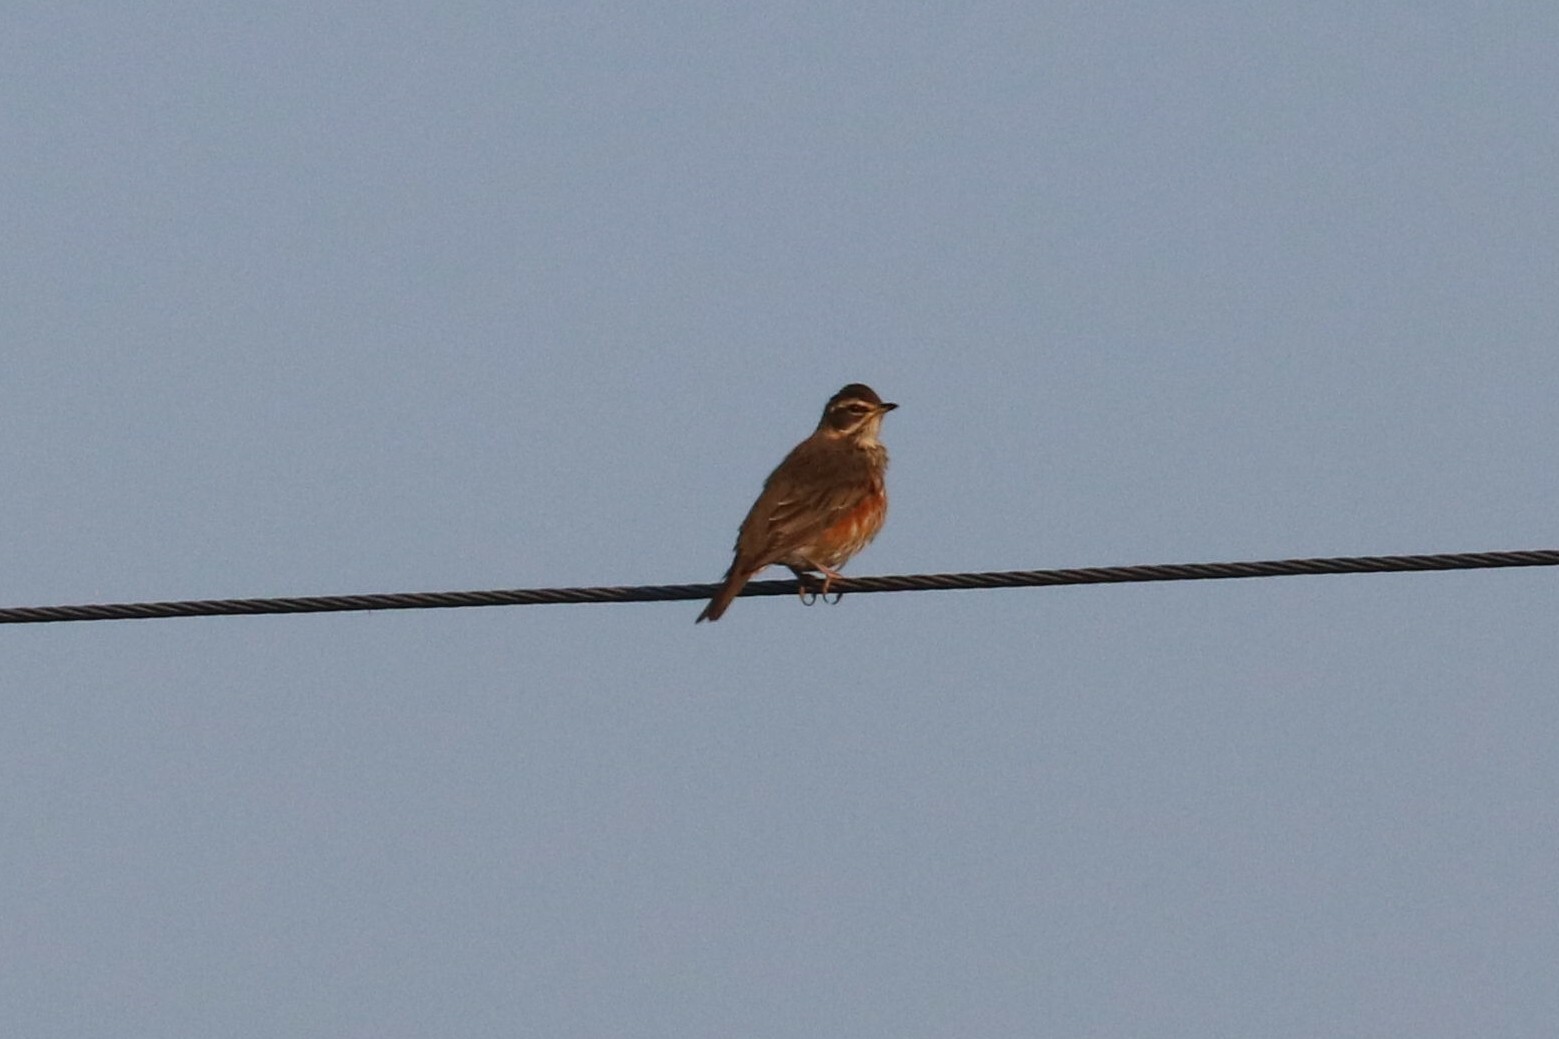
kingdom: Animalia
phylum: Chordata
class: Aves
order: Passeriformes
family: Turdidae
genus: Turdus
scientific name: Turdus iliacus
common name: Redwing
